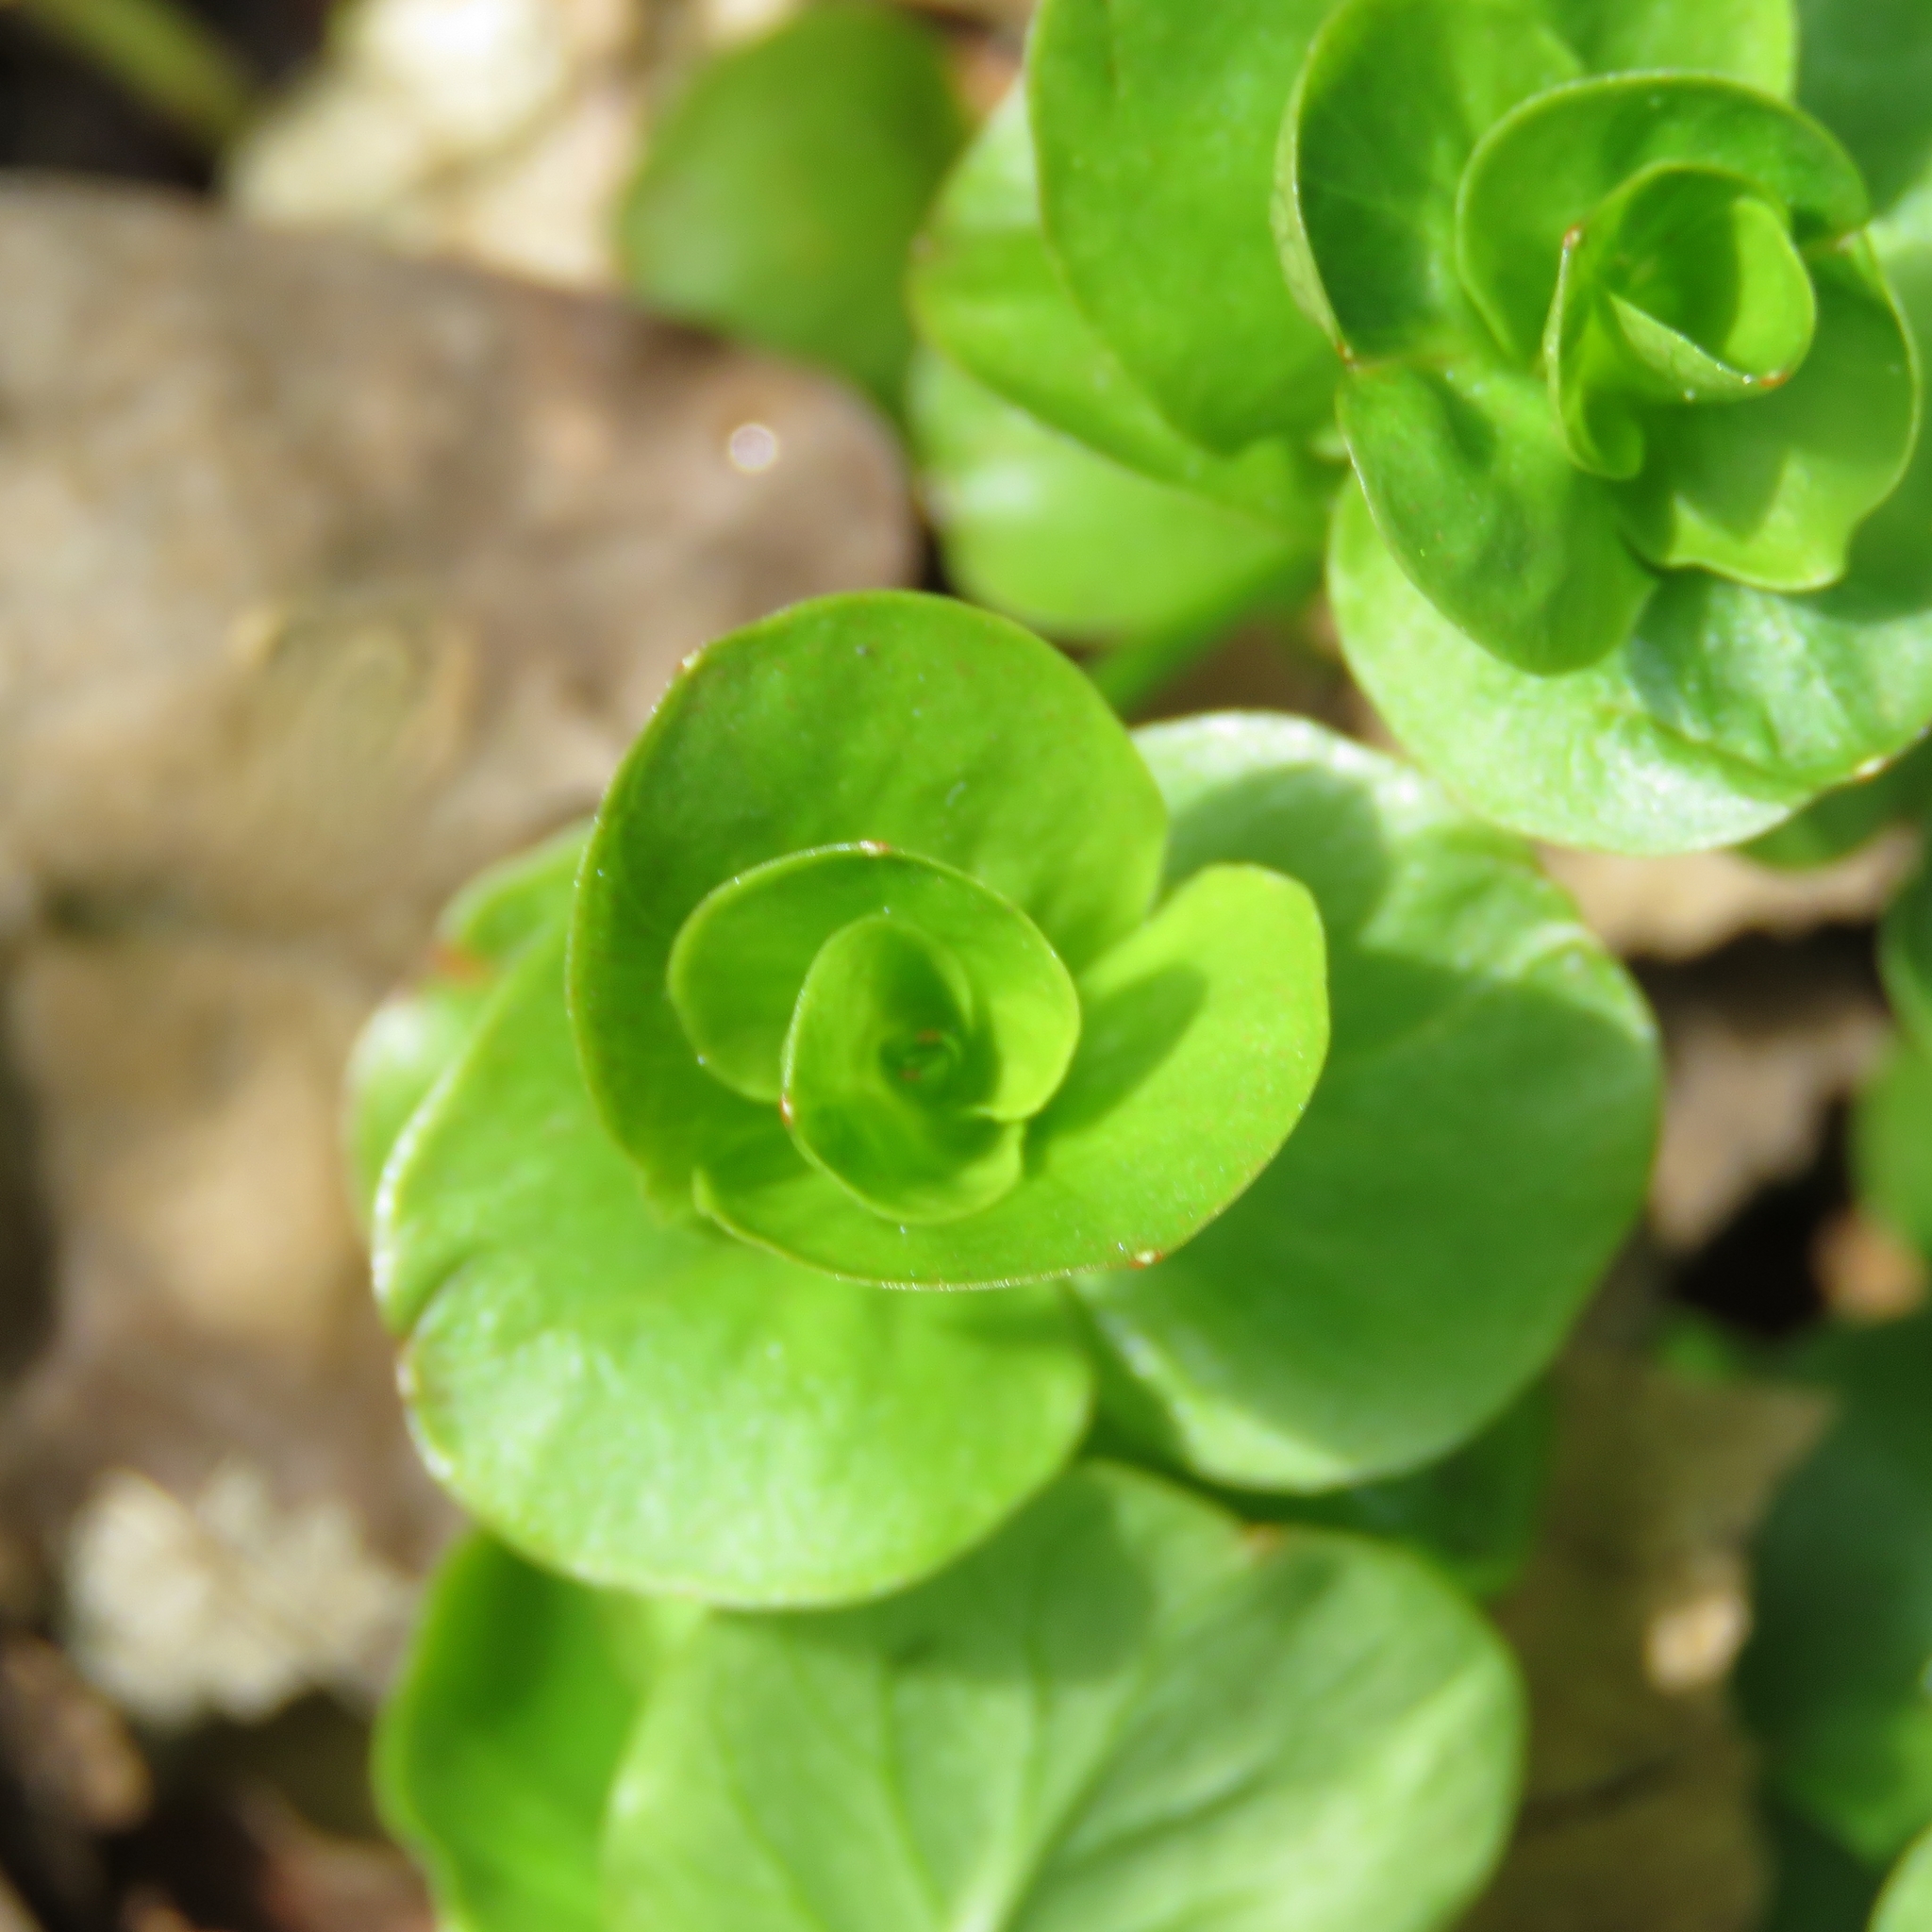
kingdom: Plantae
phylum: Tracheophyta
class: Magnoliopsida
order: Ericales
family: Primulaceae
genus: Lysimachia
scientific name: Lysimachia nummularia
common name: Moneywort
